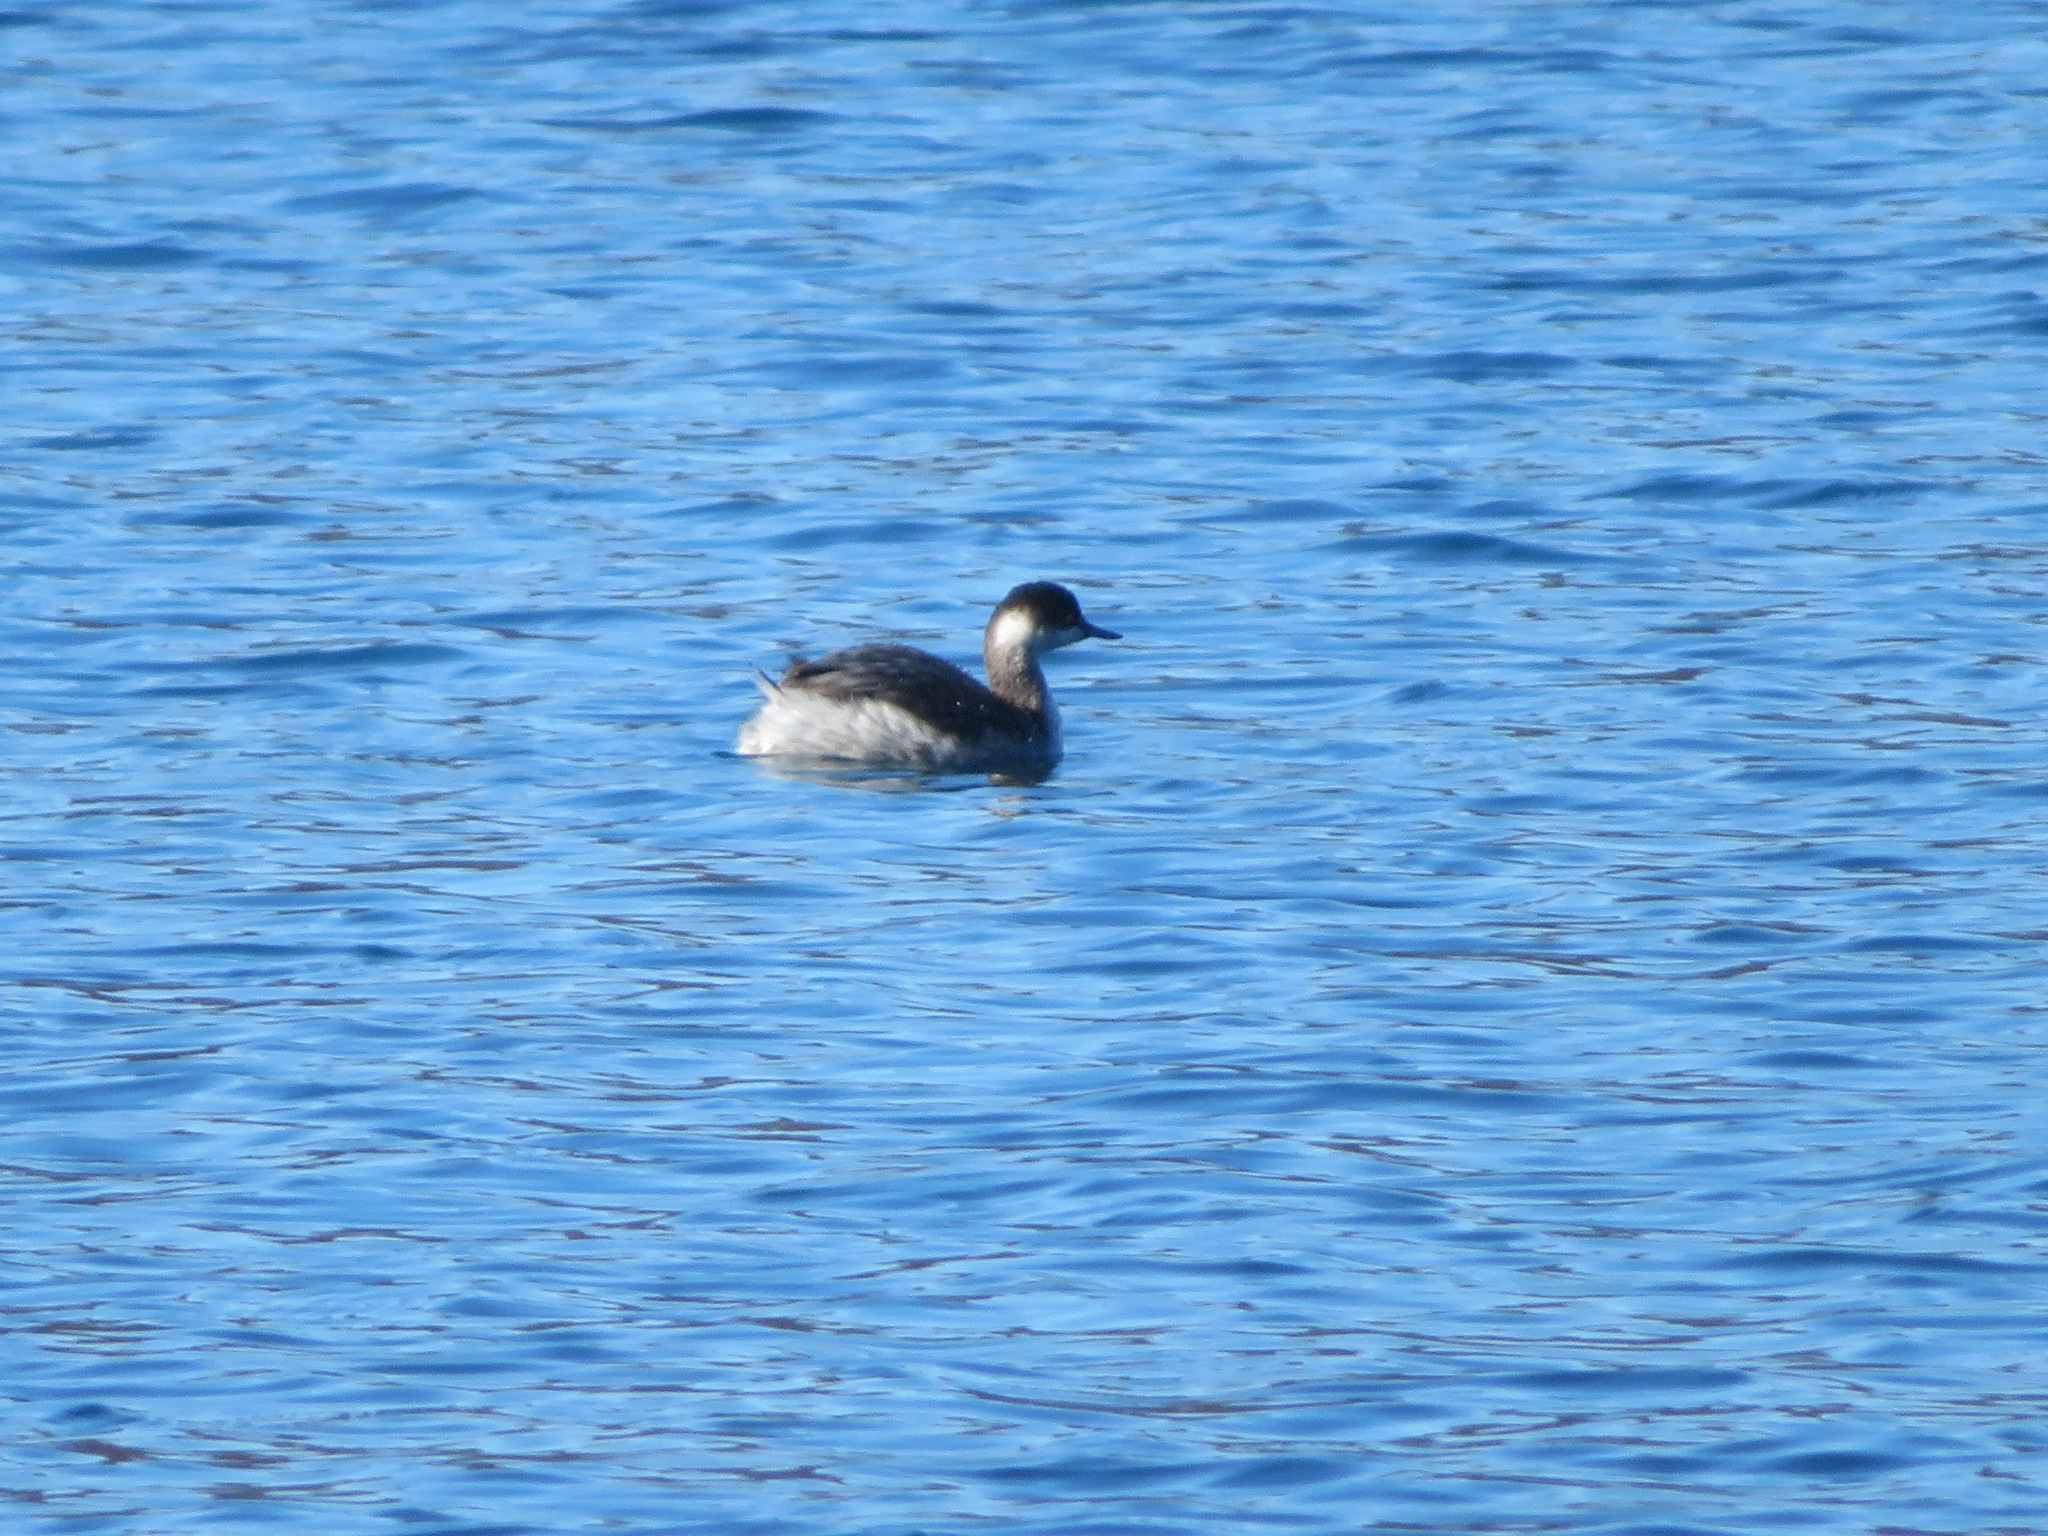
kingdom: Animalia
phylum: Chordata
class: Aves
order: Podicipediformes
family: Podicipedidae
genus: Podiceps
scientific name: Podiceps nigricollis
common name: Black-necked grebe
